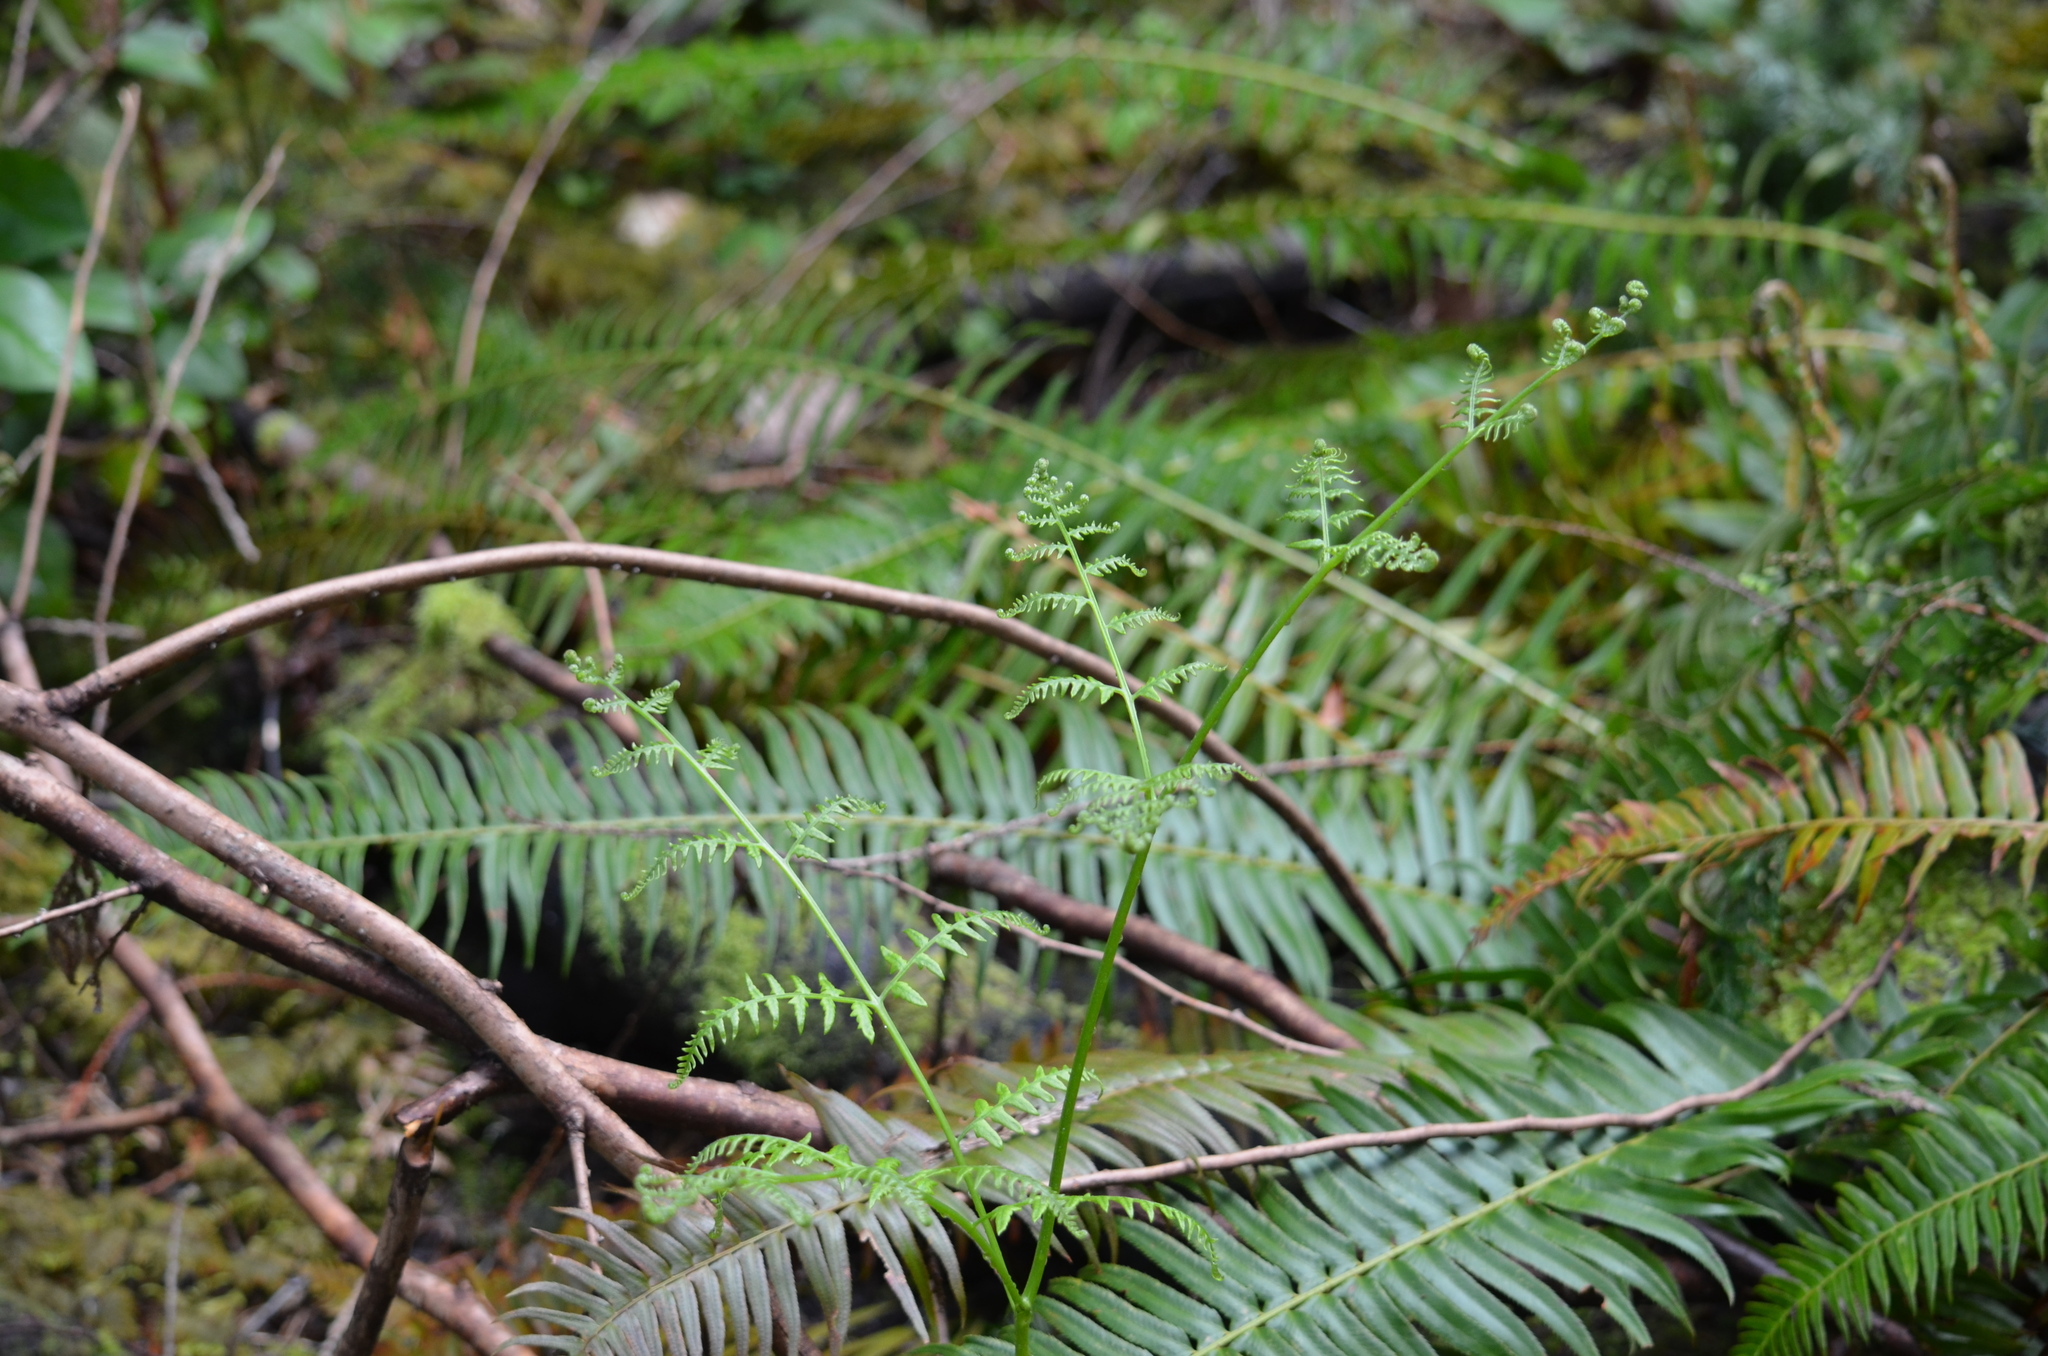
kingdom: Plantae
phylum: Tracheophyta
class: Polypodiopsida
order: Polypodiales
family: Dennstaedtiaceae
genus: Pteridium
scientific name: Pteridium aquilinum
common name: Bracken
